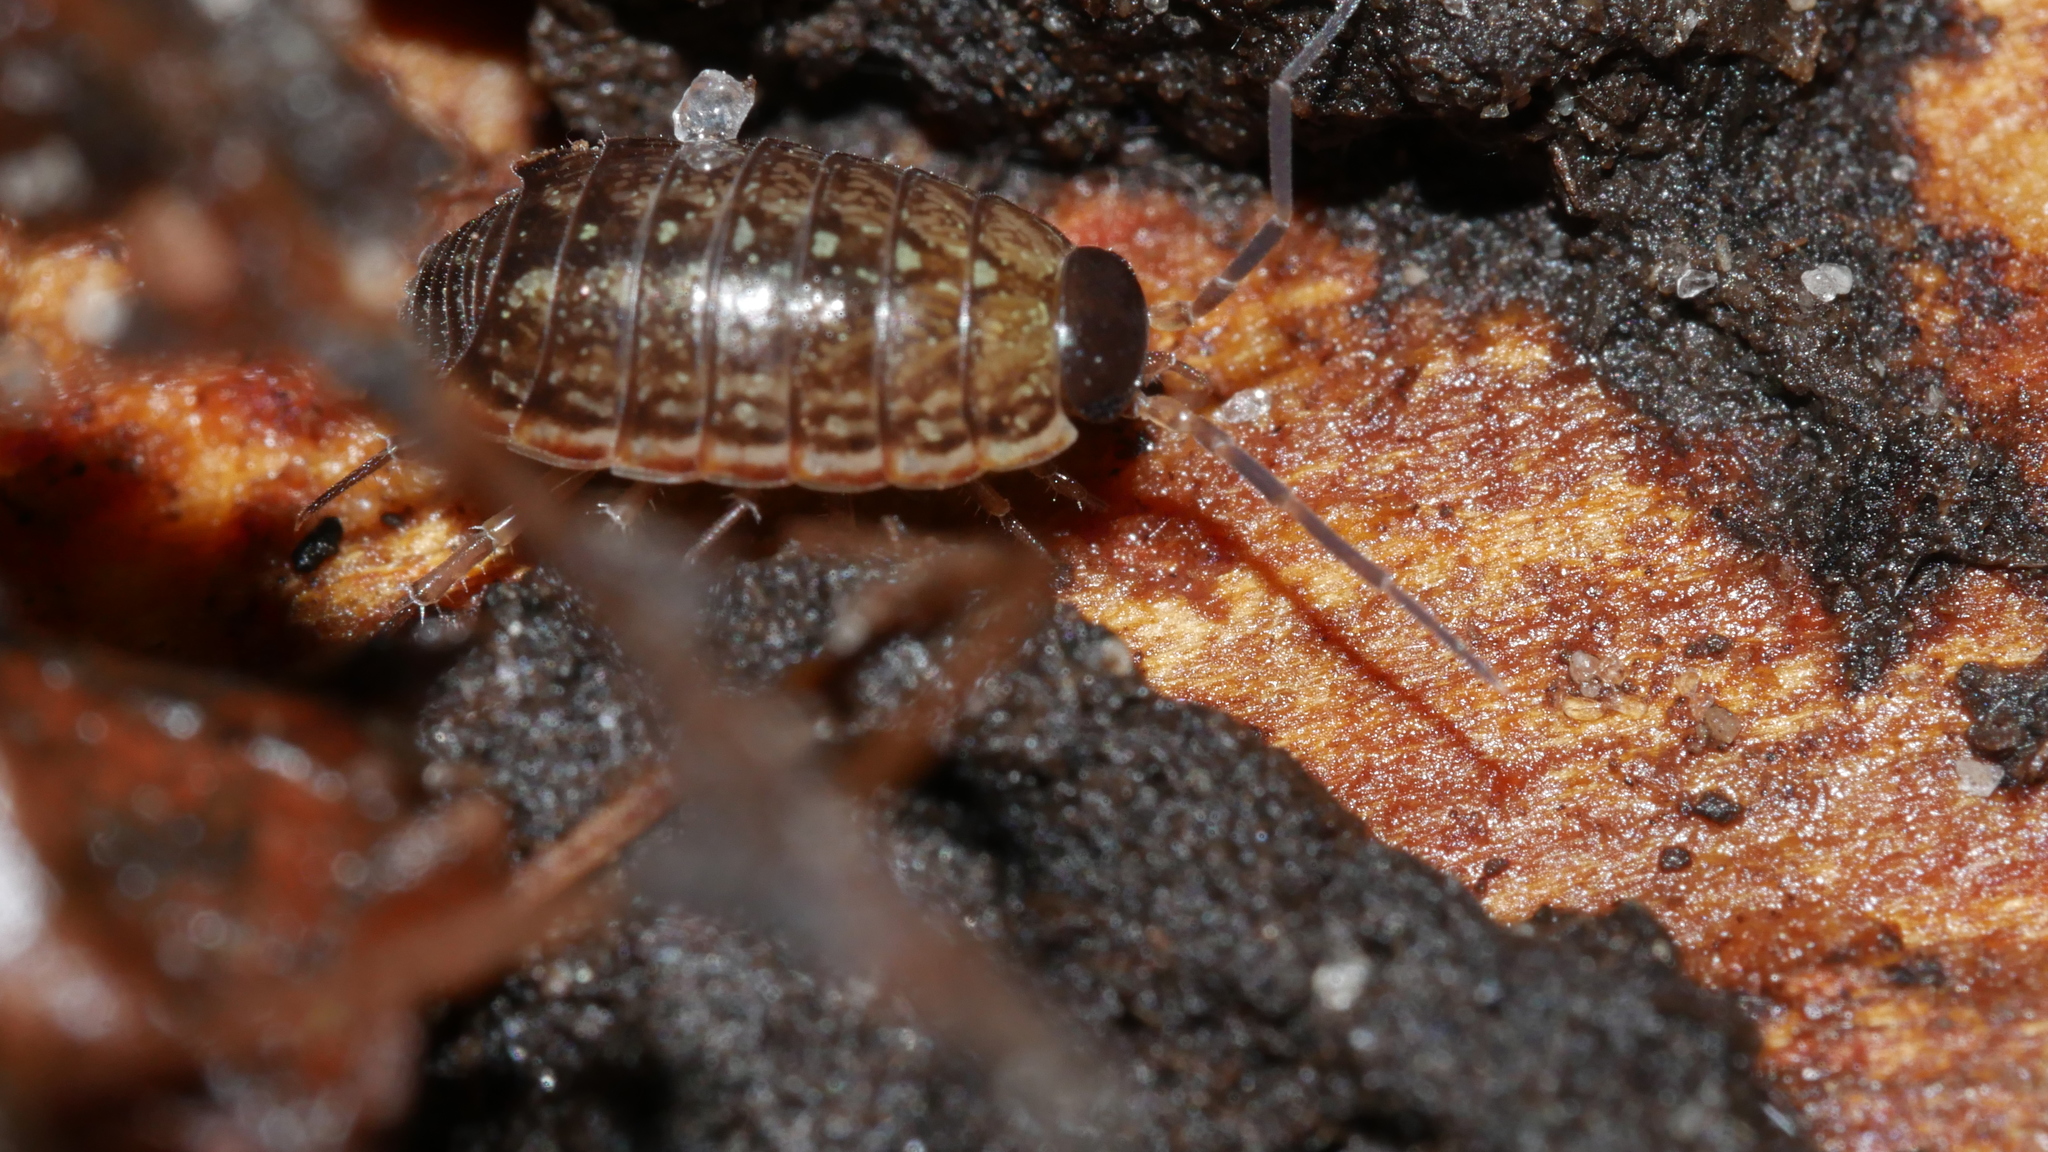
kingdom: Animalia
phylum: Arthropoda
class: Malacostraca
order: Isopoda
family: Philosciidae
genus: Philoscia
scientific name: Philoscia muscorum
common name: Common striped woodlouse
